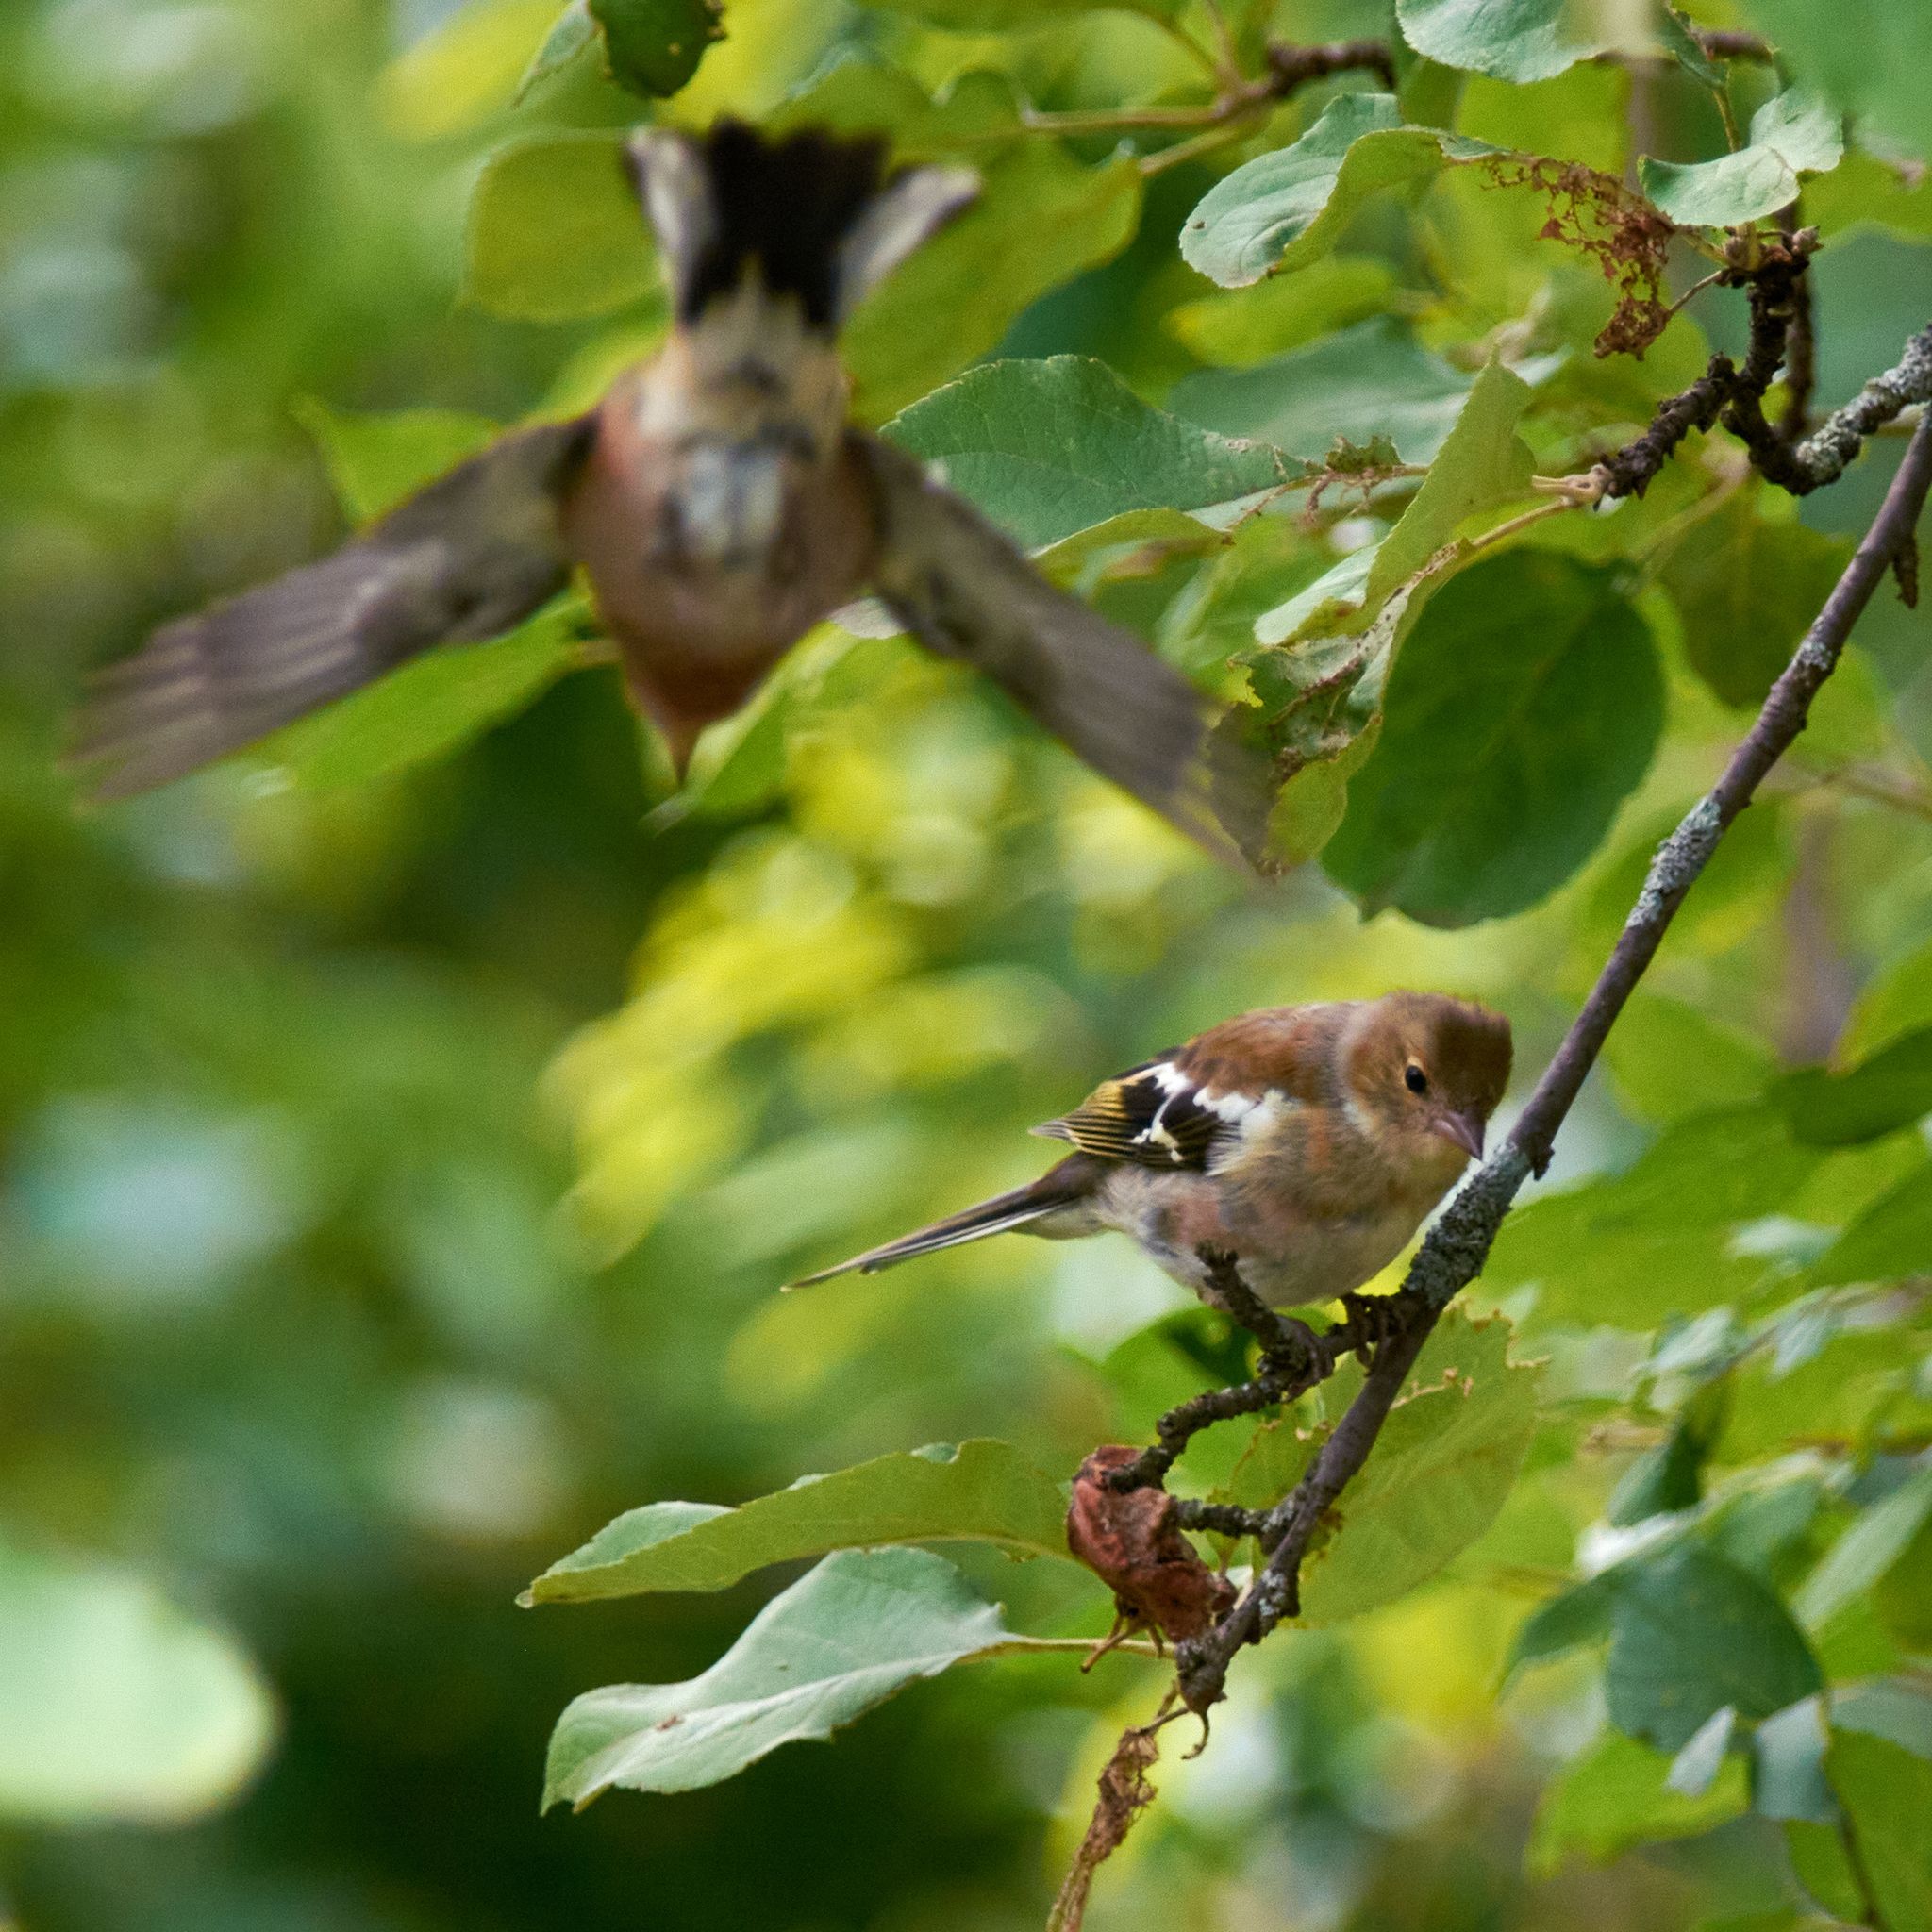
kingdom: Animalia
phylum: Chordata
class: Aves
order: Passeriformes
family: Fringillidae
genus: Fringilla
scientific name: Fringilla coelebs
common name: Common chaffinch
